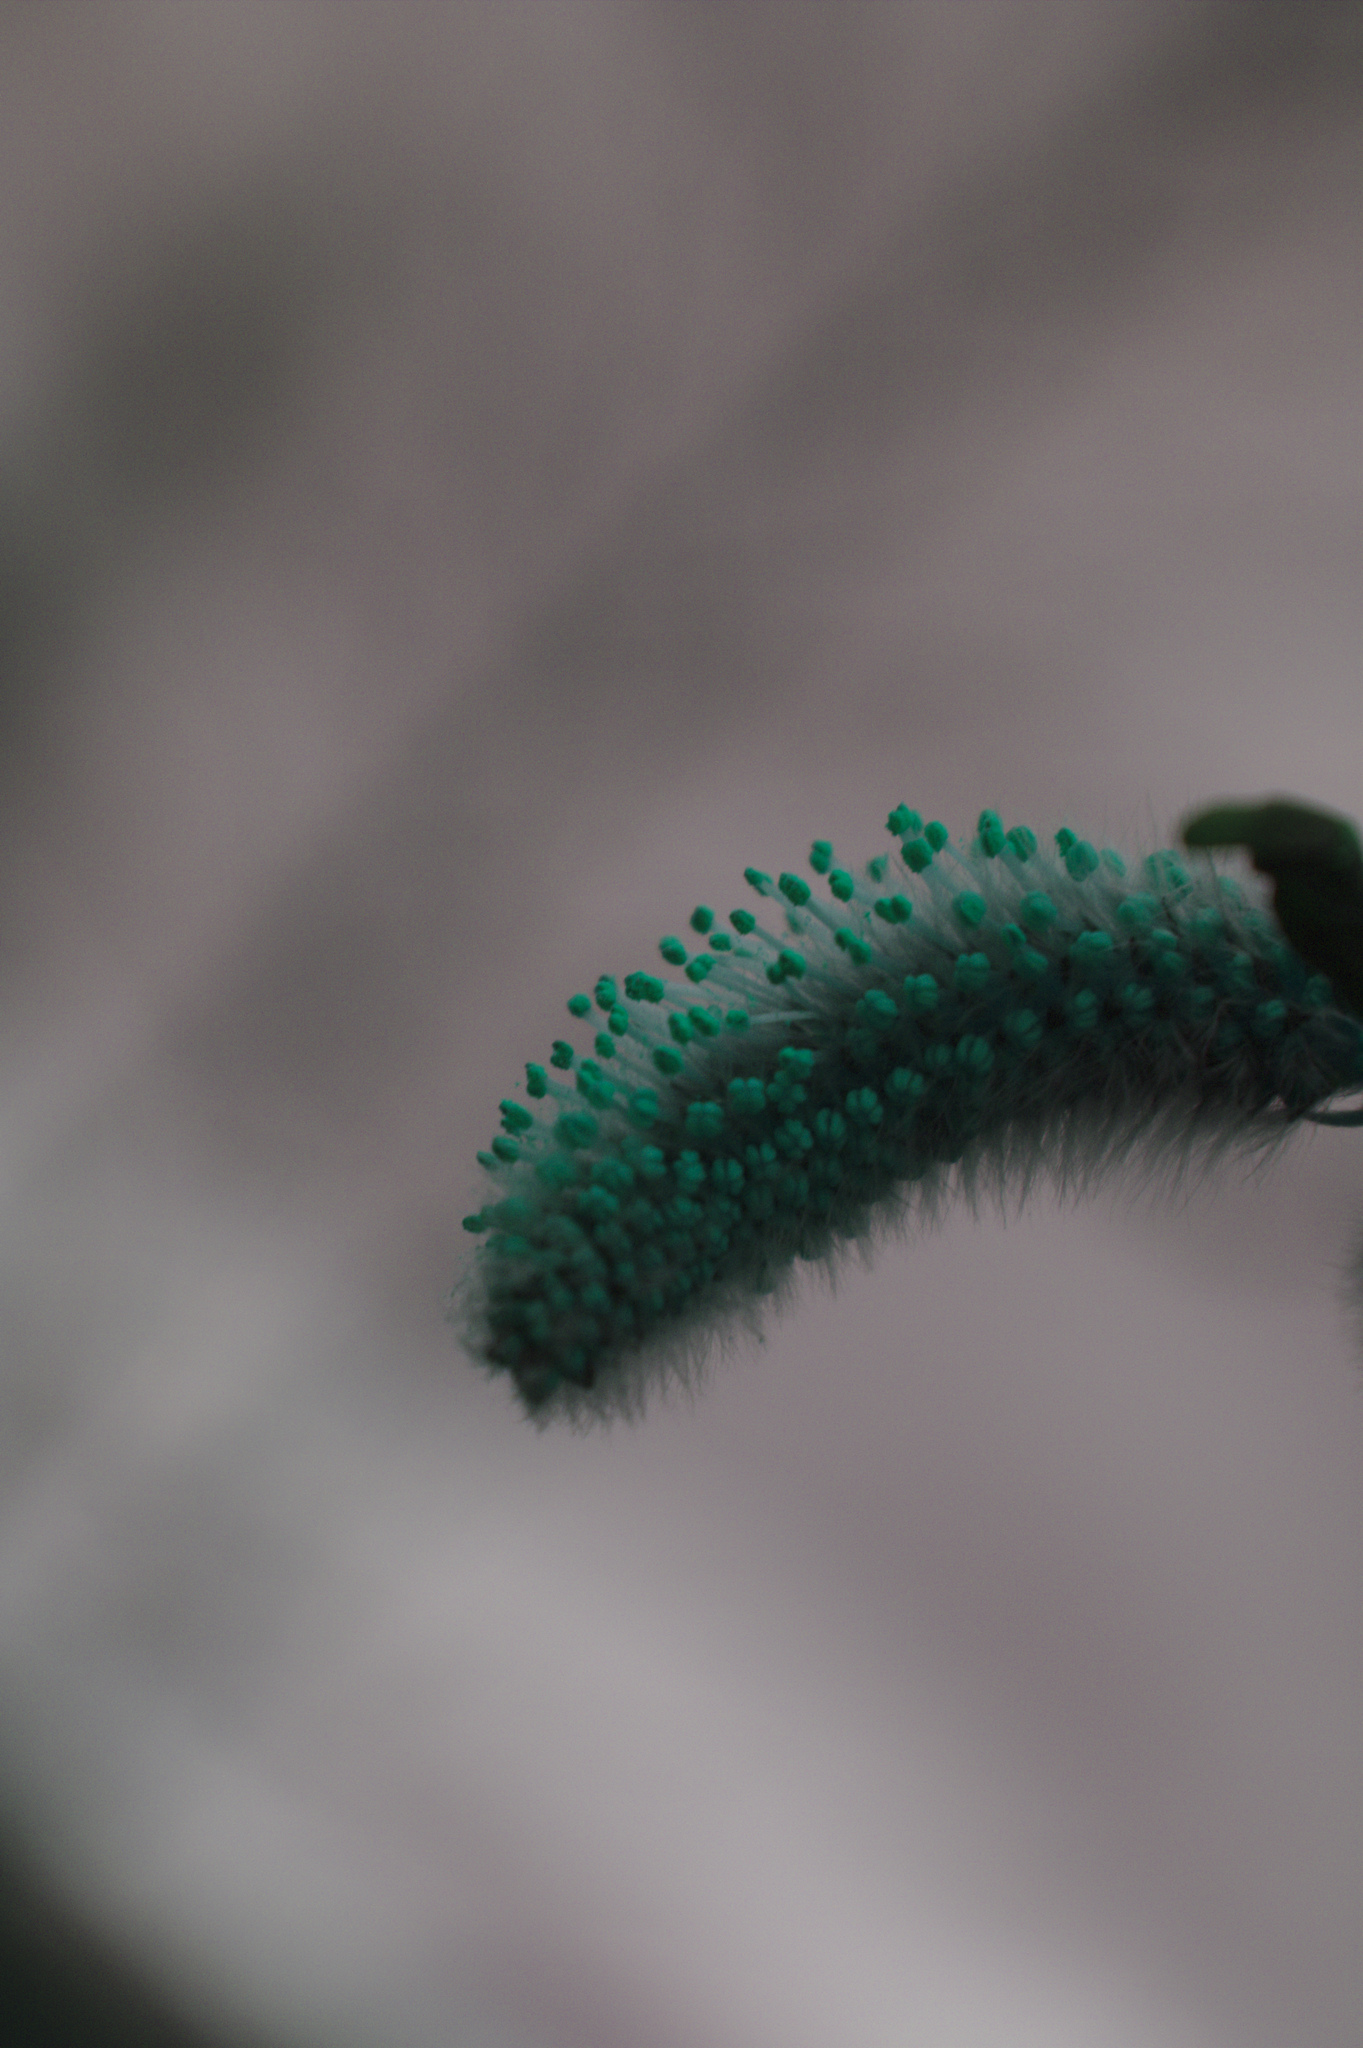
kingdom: Plantae
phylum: Tracheophyta
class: Magnoliopsida
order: Malpighiales
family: Salicaceae
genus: Salix
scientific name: Salix discolor
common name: Glaucous willow
